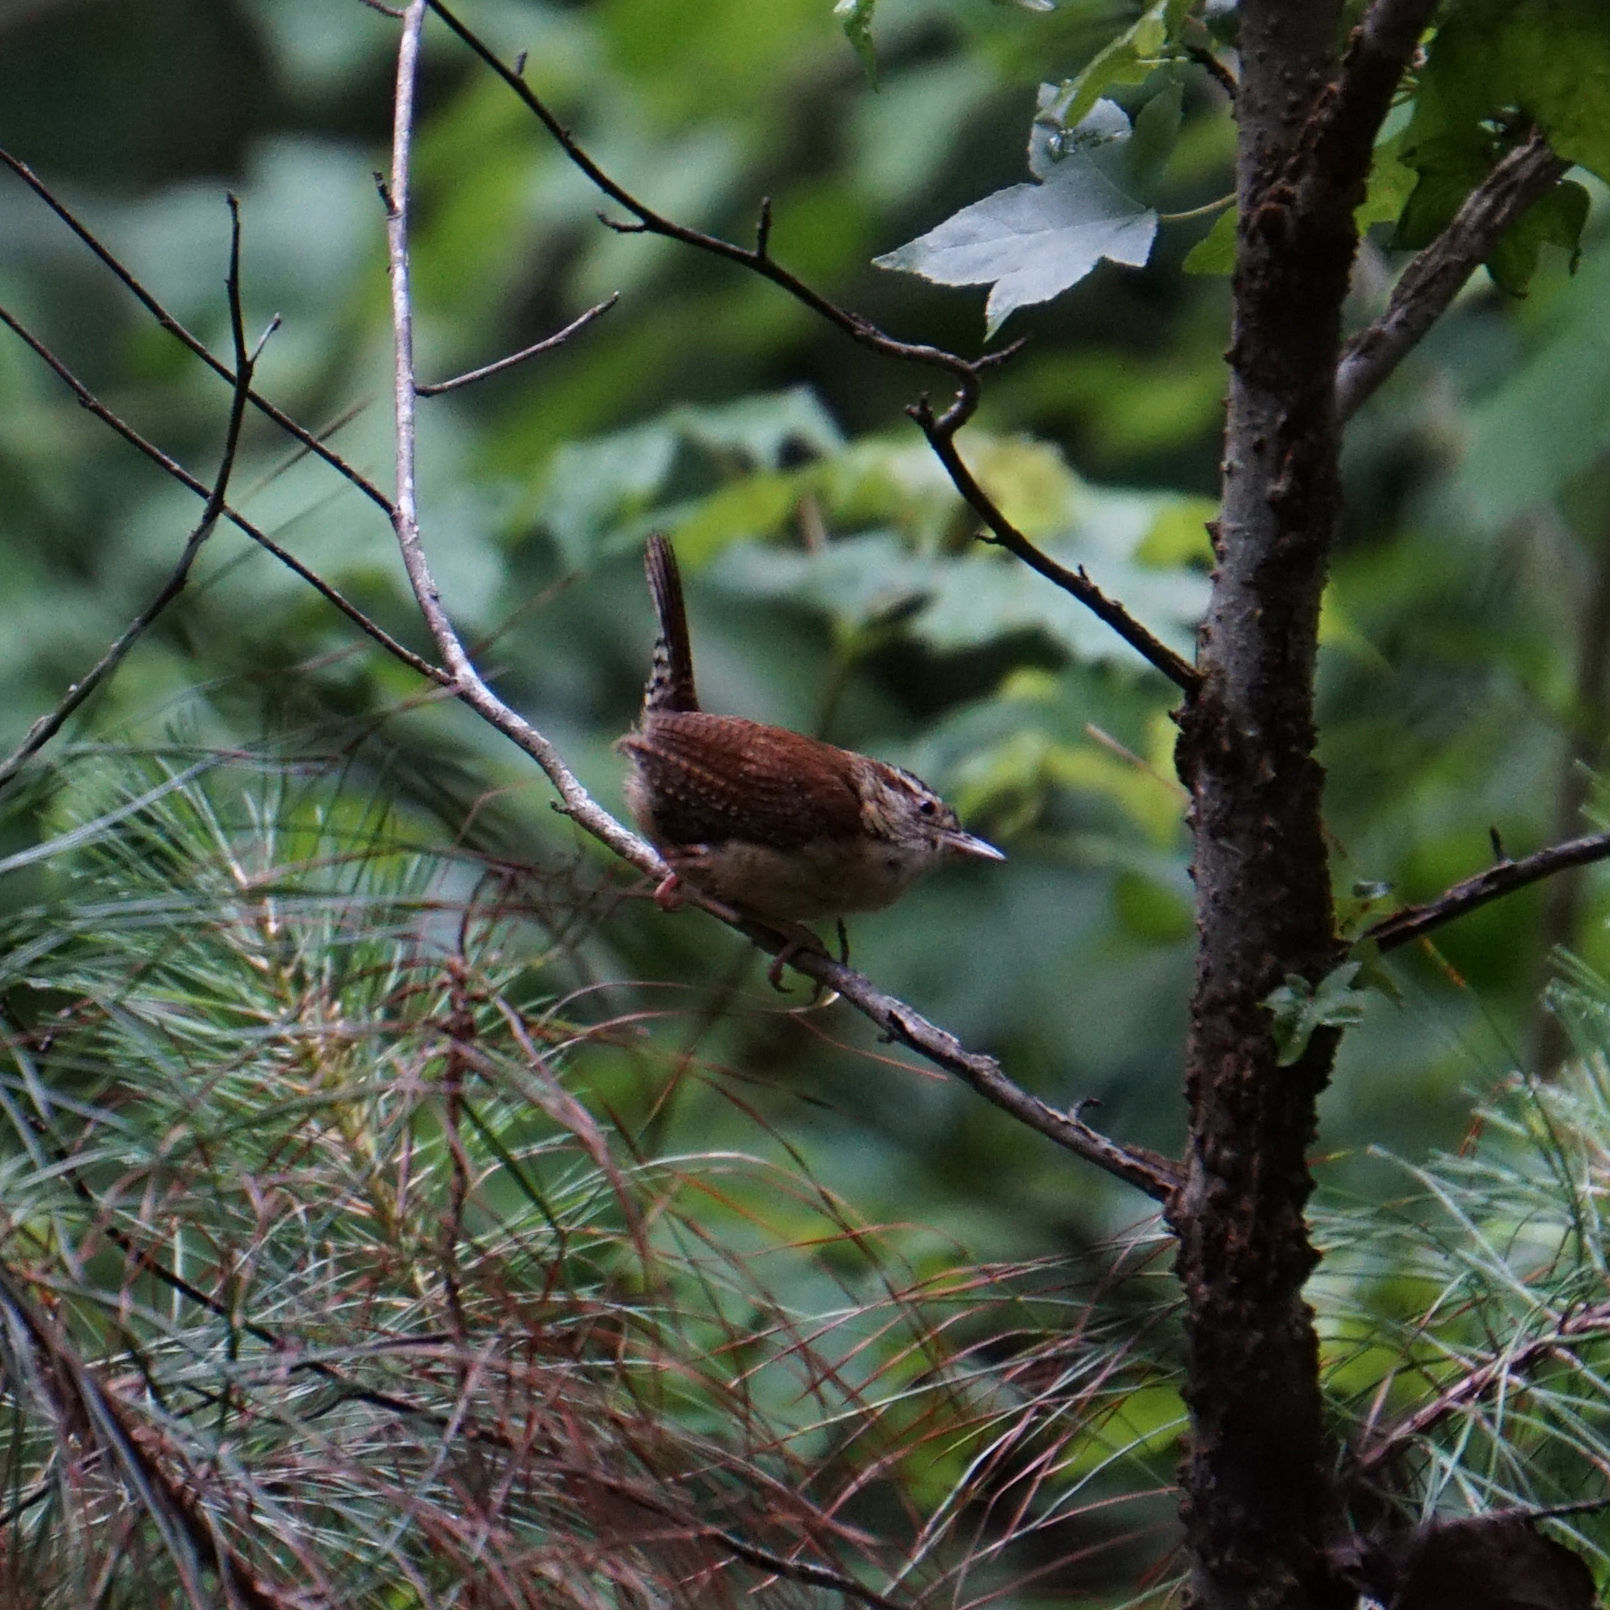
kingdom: Animalia
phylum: Chordata
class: Aves
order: Passeriformes
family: Troglodytidae
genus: Thryothorus
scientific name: Thryothorus ludovicianus
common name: Carolina wren
